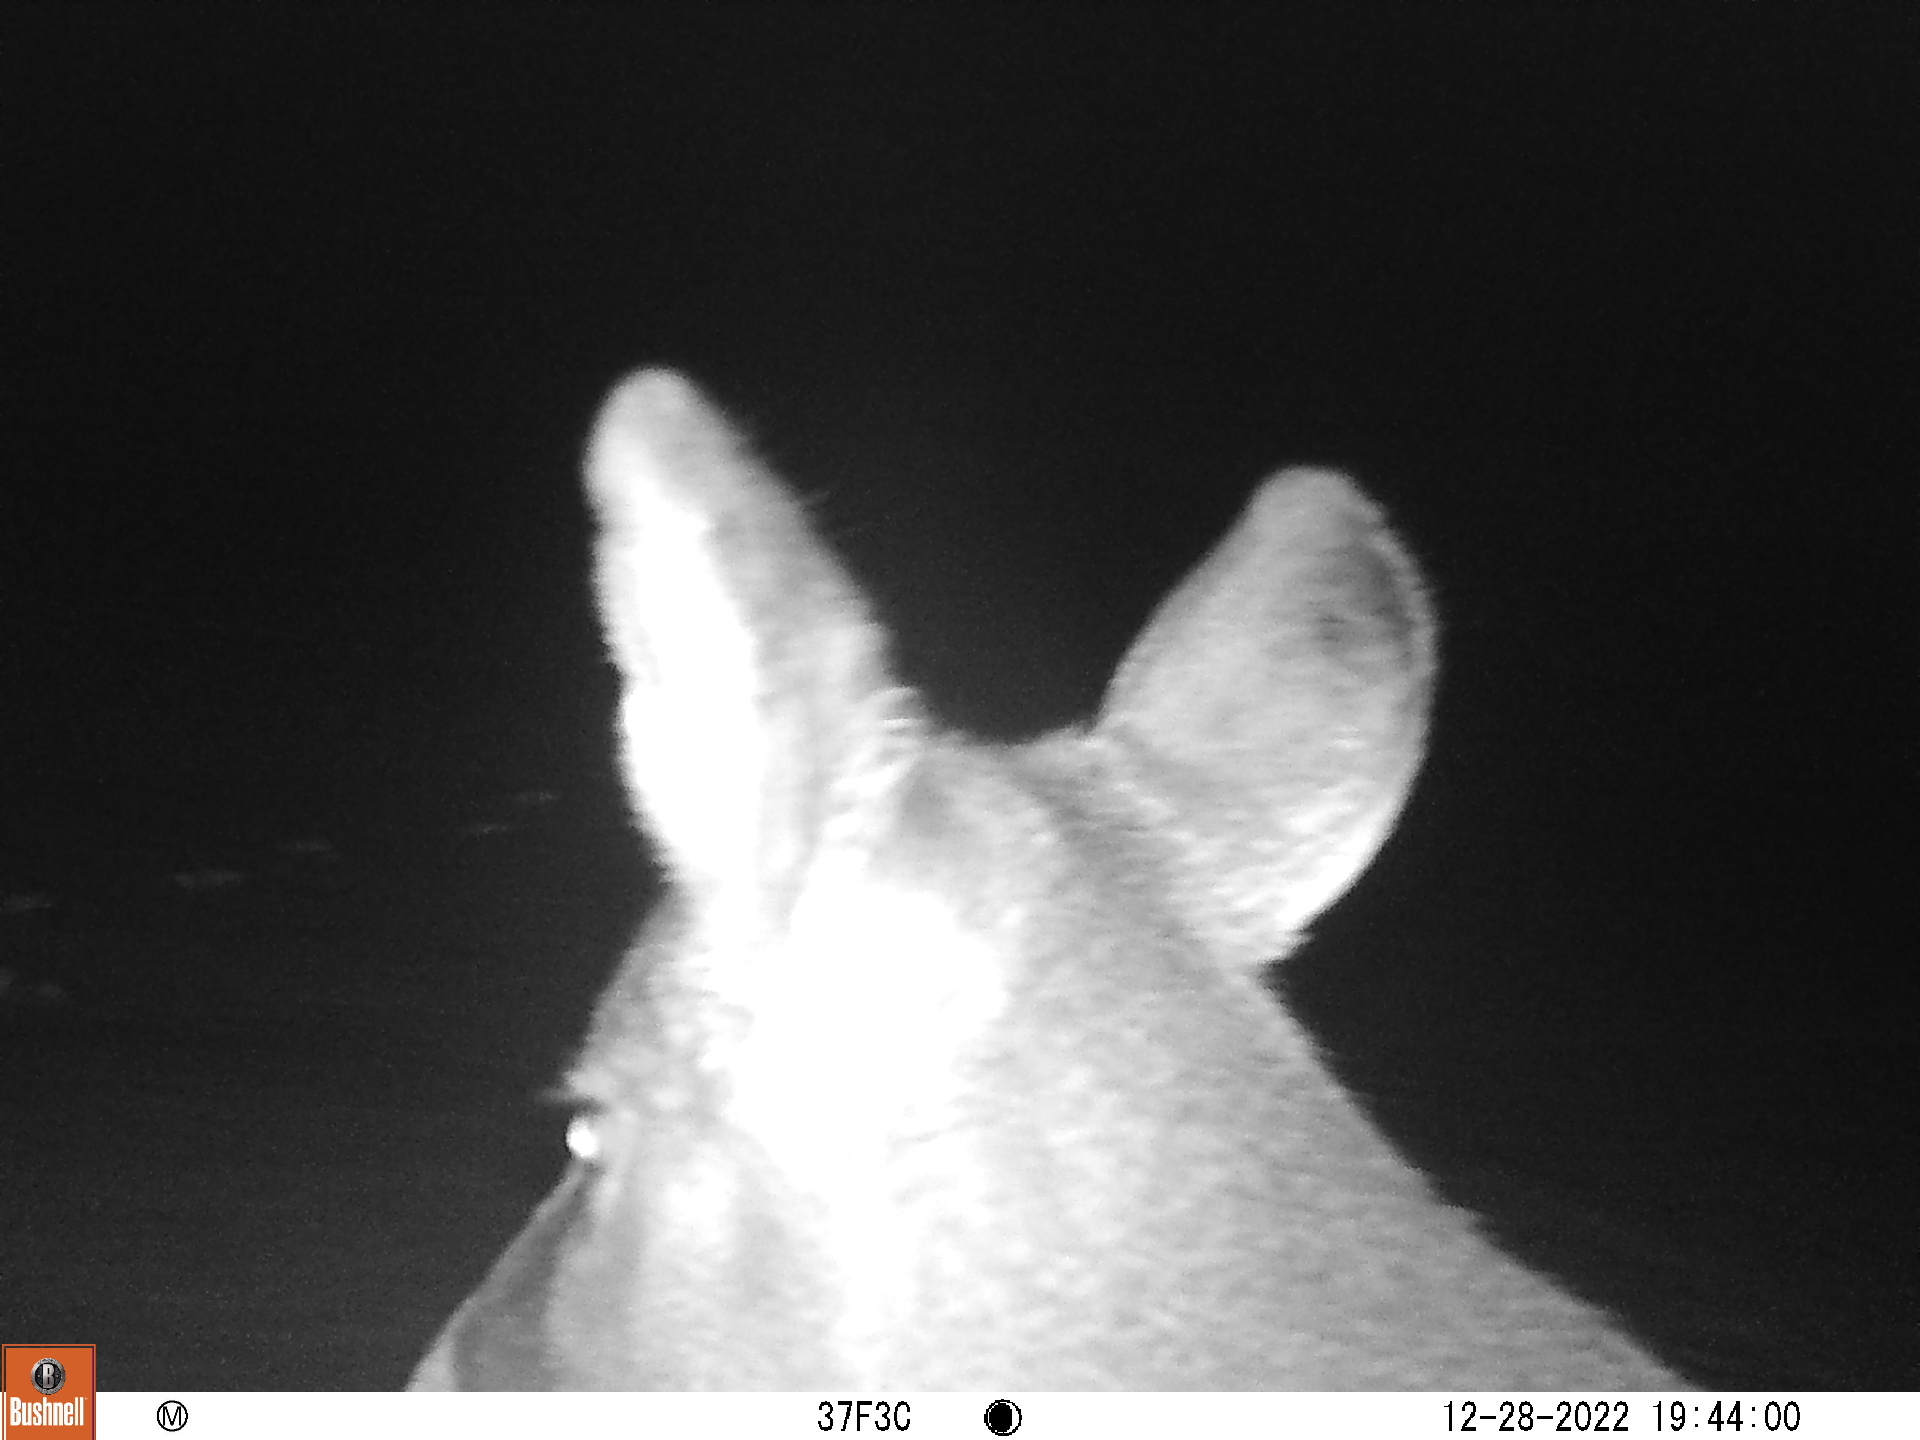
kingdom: Animalia
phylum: Chordata
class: Mammalia
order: Artiodactyla
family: Cervidae
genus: Odocoileus
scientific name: Odocoileus virginianus
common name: White-tailed deer
